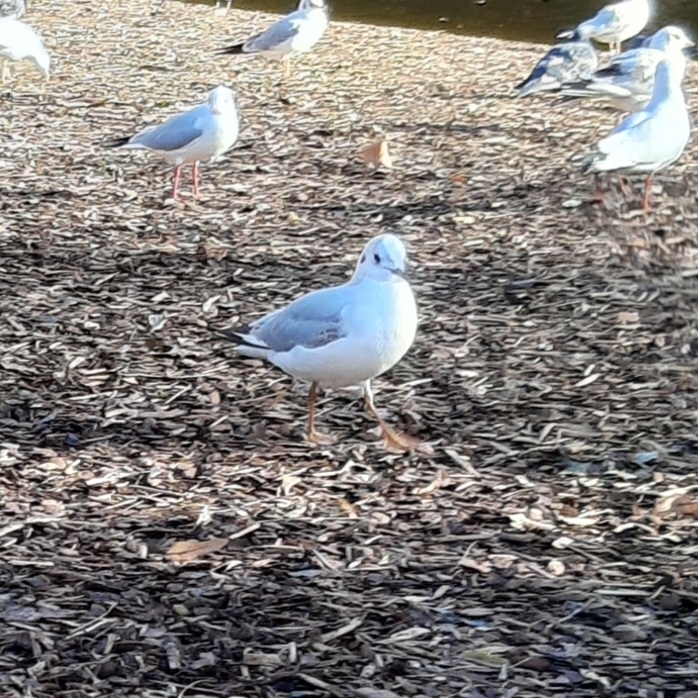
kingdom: Animalia
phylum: Chordata
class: Aves
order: Charadriiformes
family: Laridae
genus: Chroicocephalus
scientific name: Chroicocephalus ridibundus
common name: Black-headed gull
